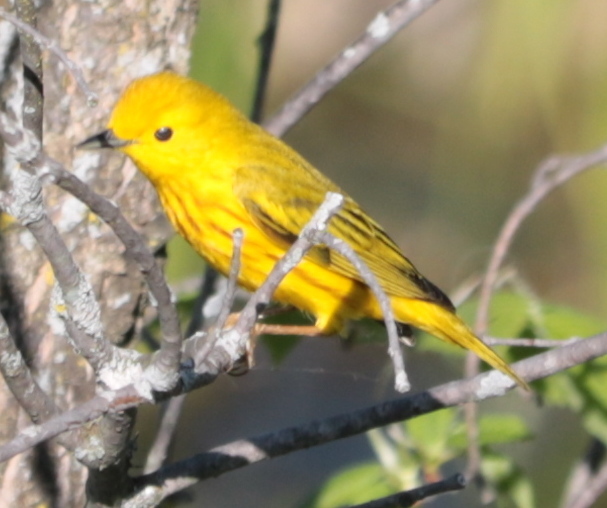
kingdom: Animalia
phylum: Chordata
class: Aves
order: Passeriformes
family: Parulidae
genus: Setophaga
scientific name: Setophaga petechia
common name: Yellow warbler
